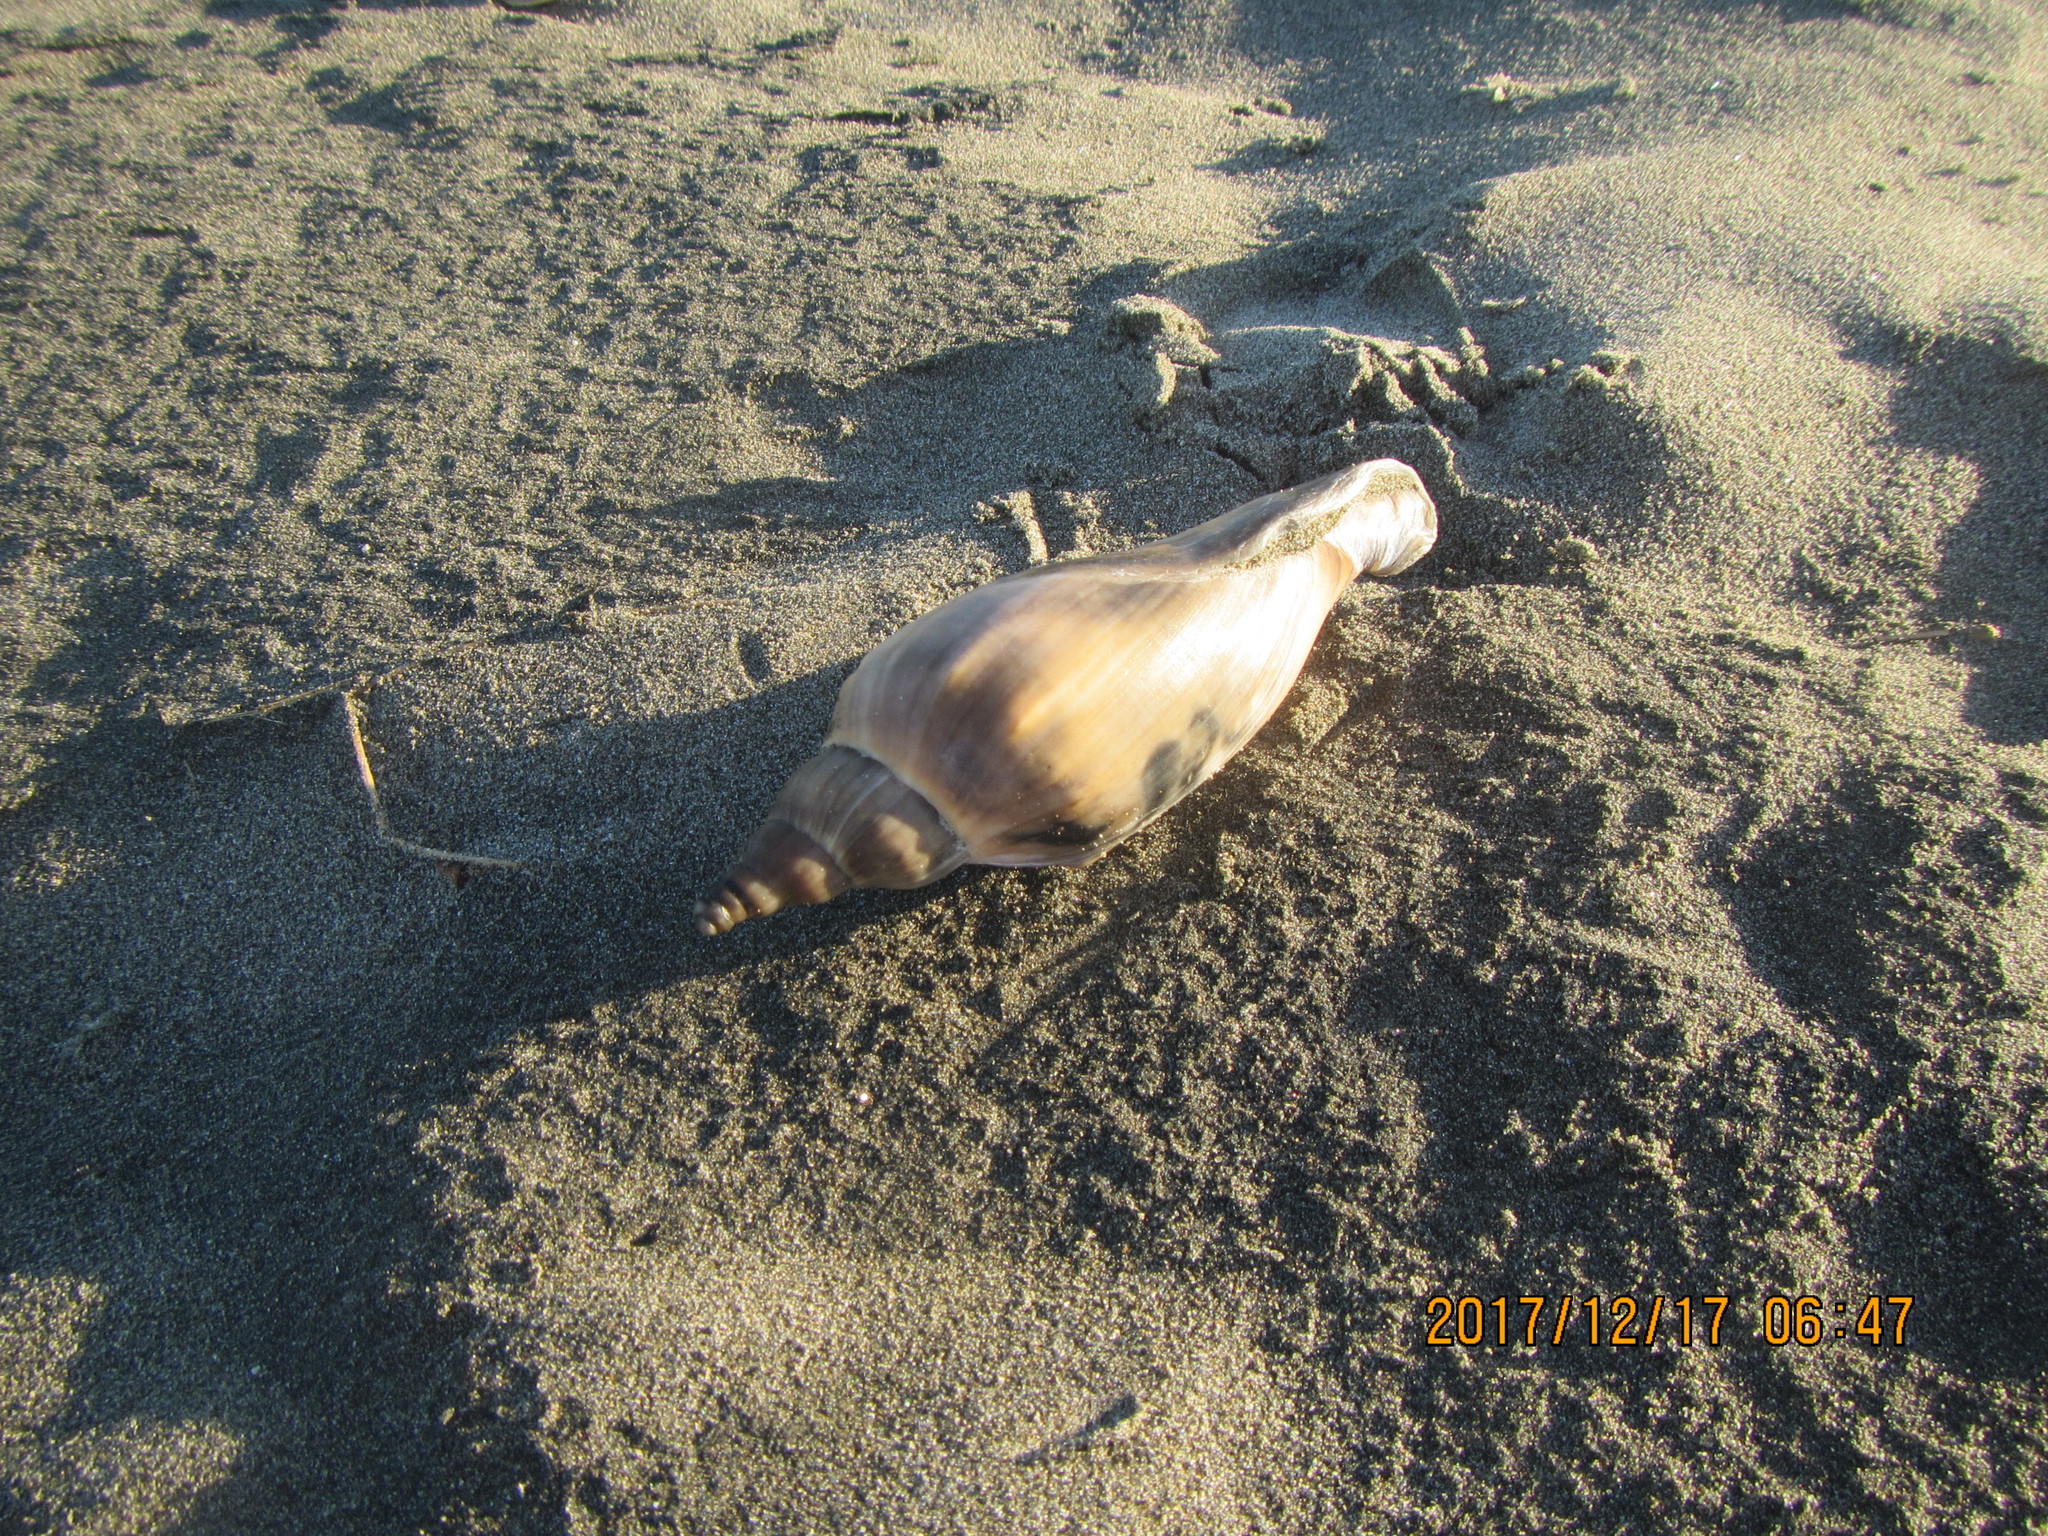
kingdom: Animalia
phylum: Mollusca
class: Gastropoda
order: Neogastropoda
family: Volutidae
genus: Alcithoe
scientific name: Alcithoe arabica
